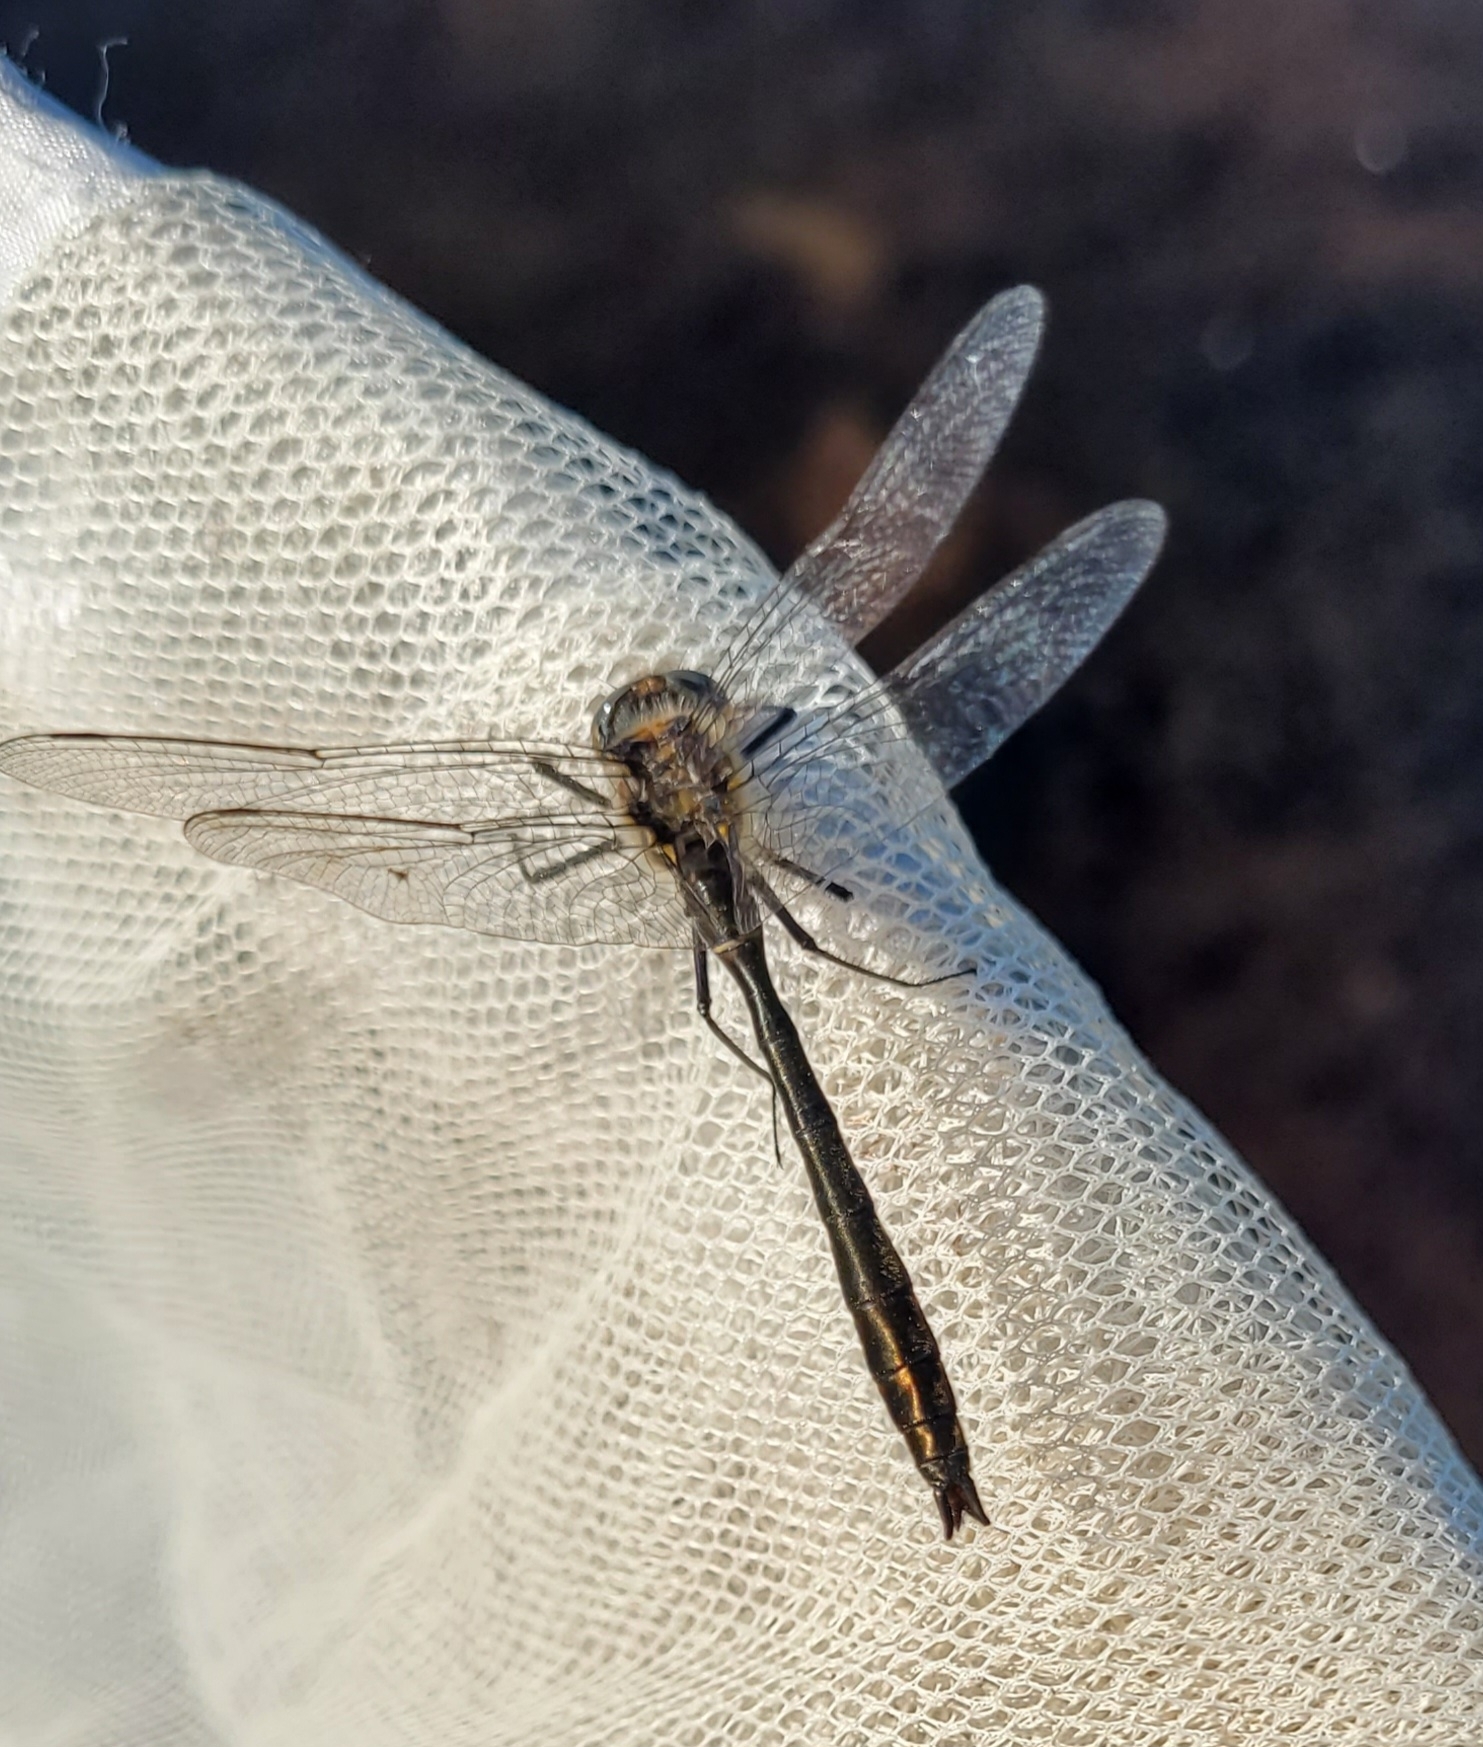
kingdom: Animalia
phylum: Arthropoda
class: Insecta
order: Odonata
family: Corduliidae
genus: Cordulia
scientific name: Cordulia shurtleffii
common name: American emerald
